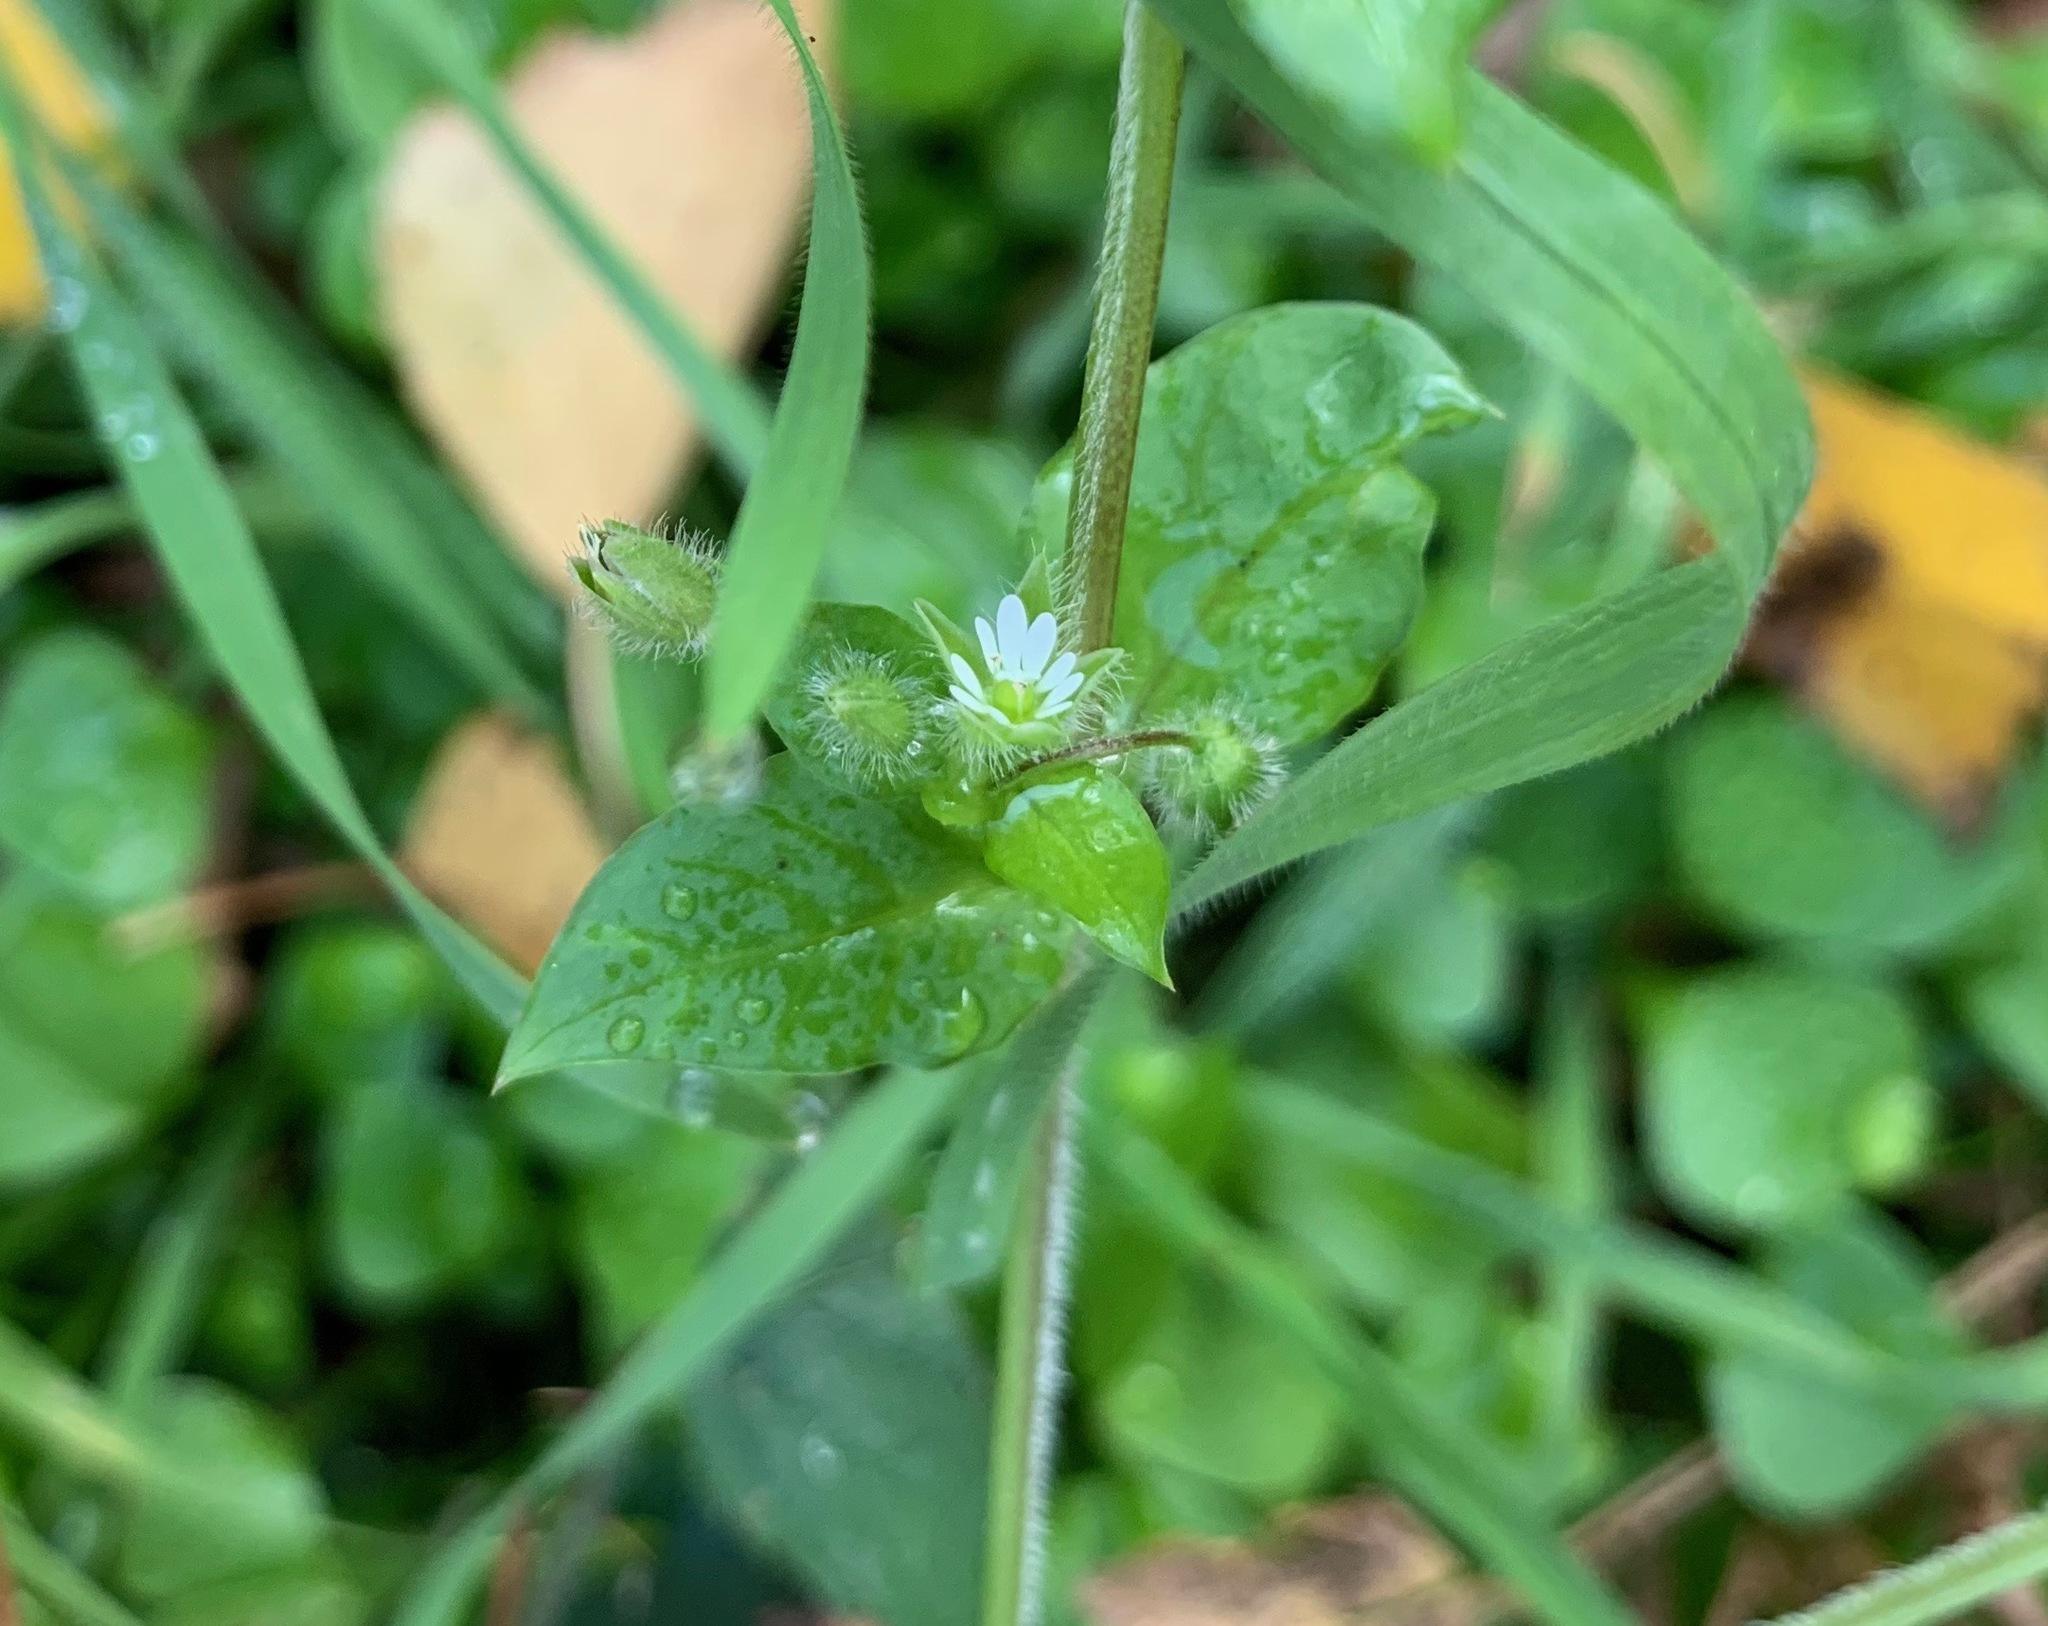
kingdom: Plantae
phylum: Tracheophyta
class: Magnoliopsida
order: Caryophyllales
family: Caryophyllaceae
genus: Stellaria
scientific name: Stellaria media
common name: Common chickweed
